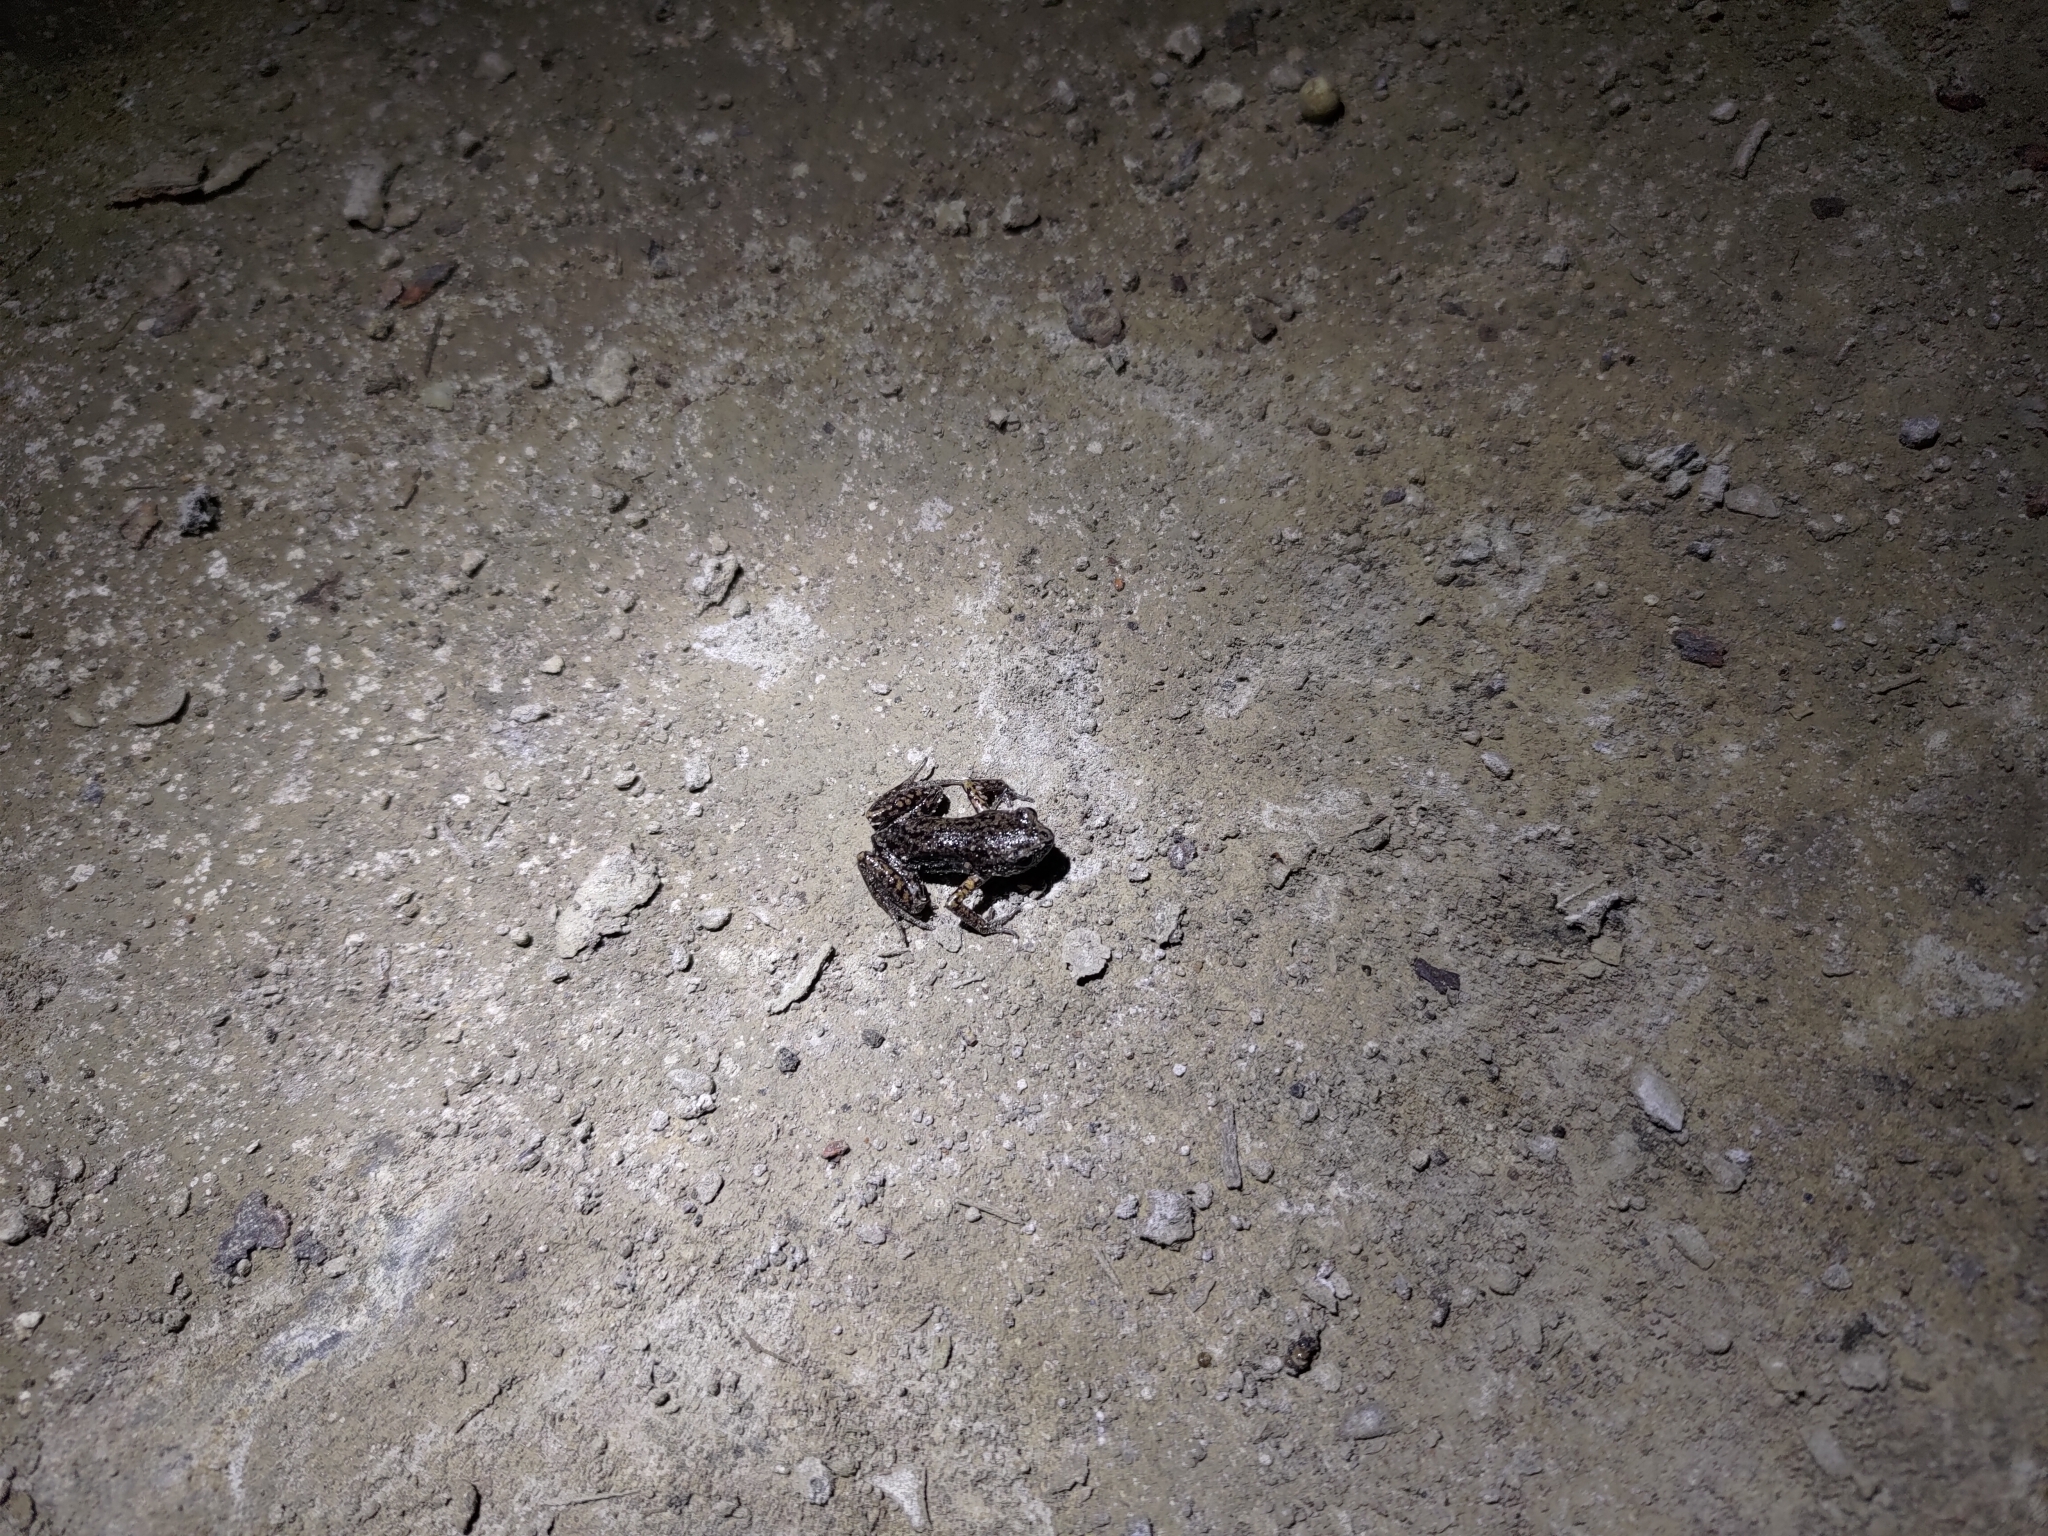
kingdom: Animalia
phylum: Chordata
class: Amphibia
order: Anura
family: Microhylidae
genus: Micryletta
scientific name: Micryletta steinegeri
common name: Stejneger's paddy frog
